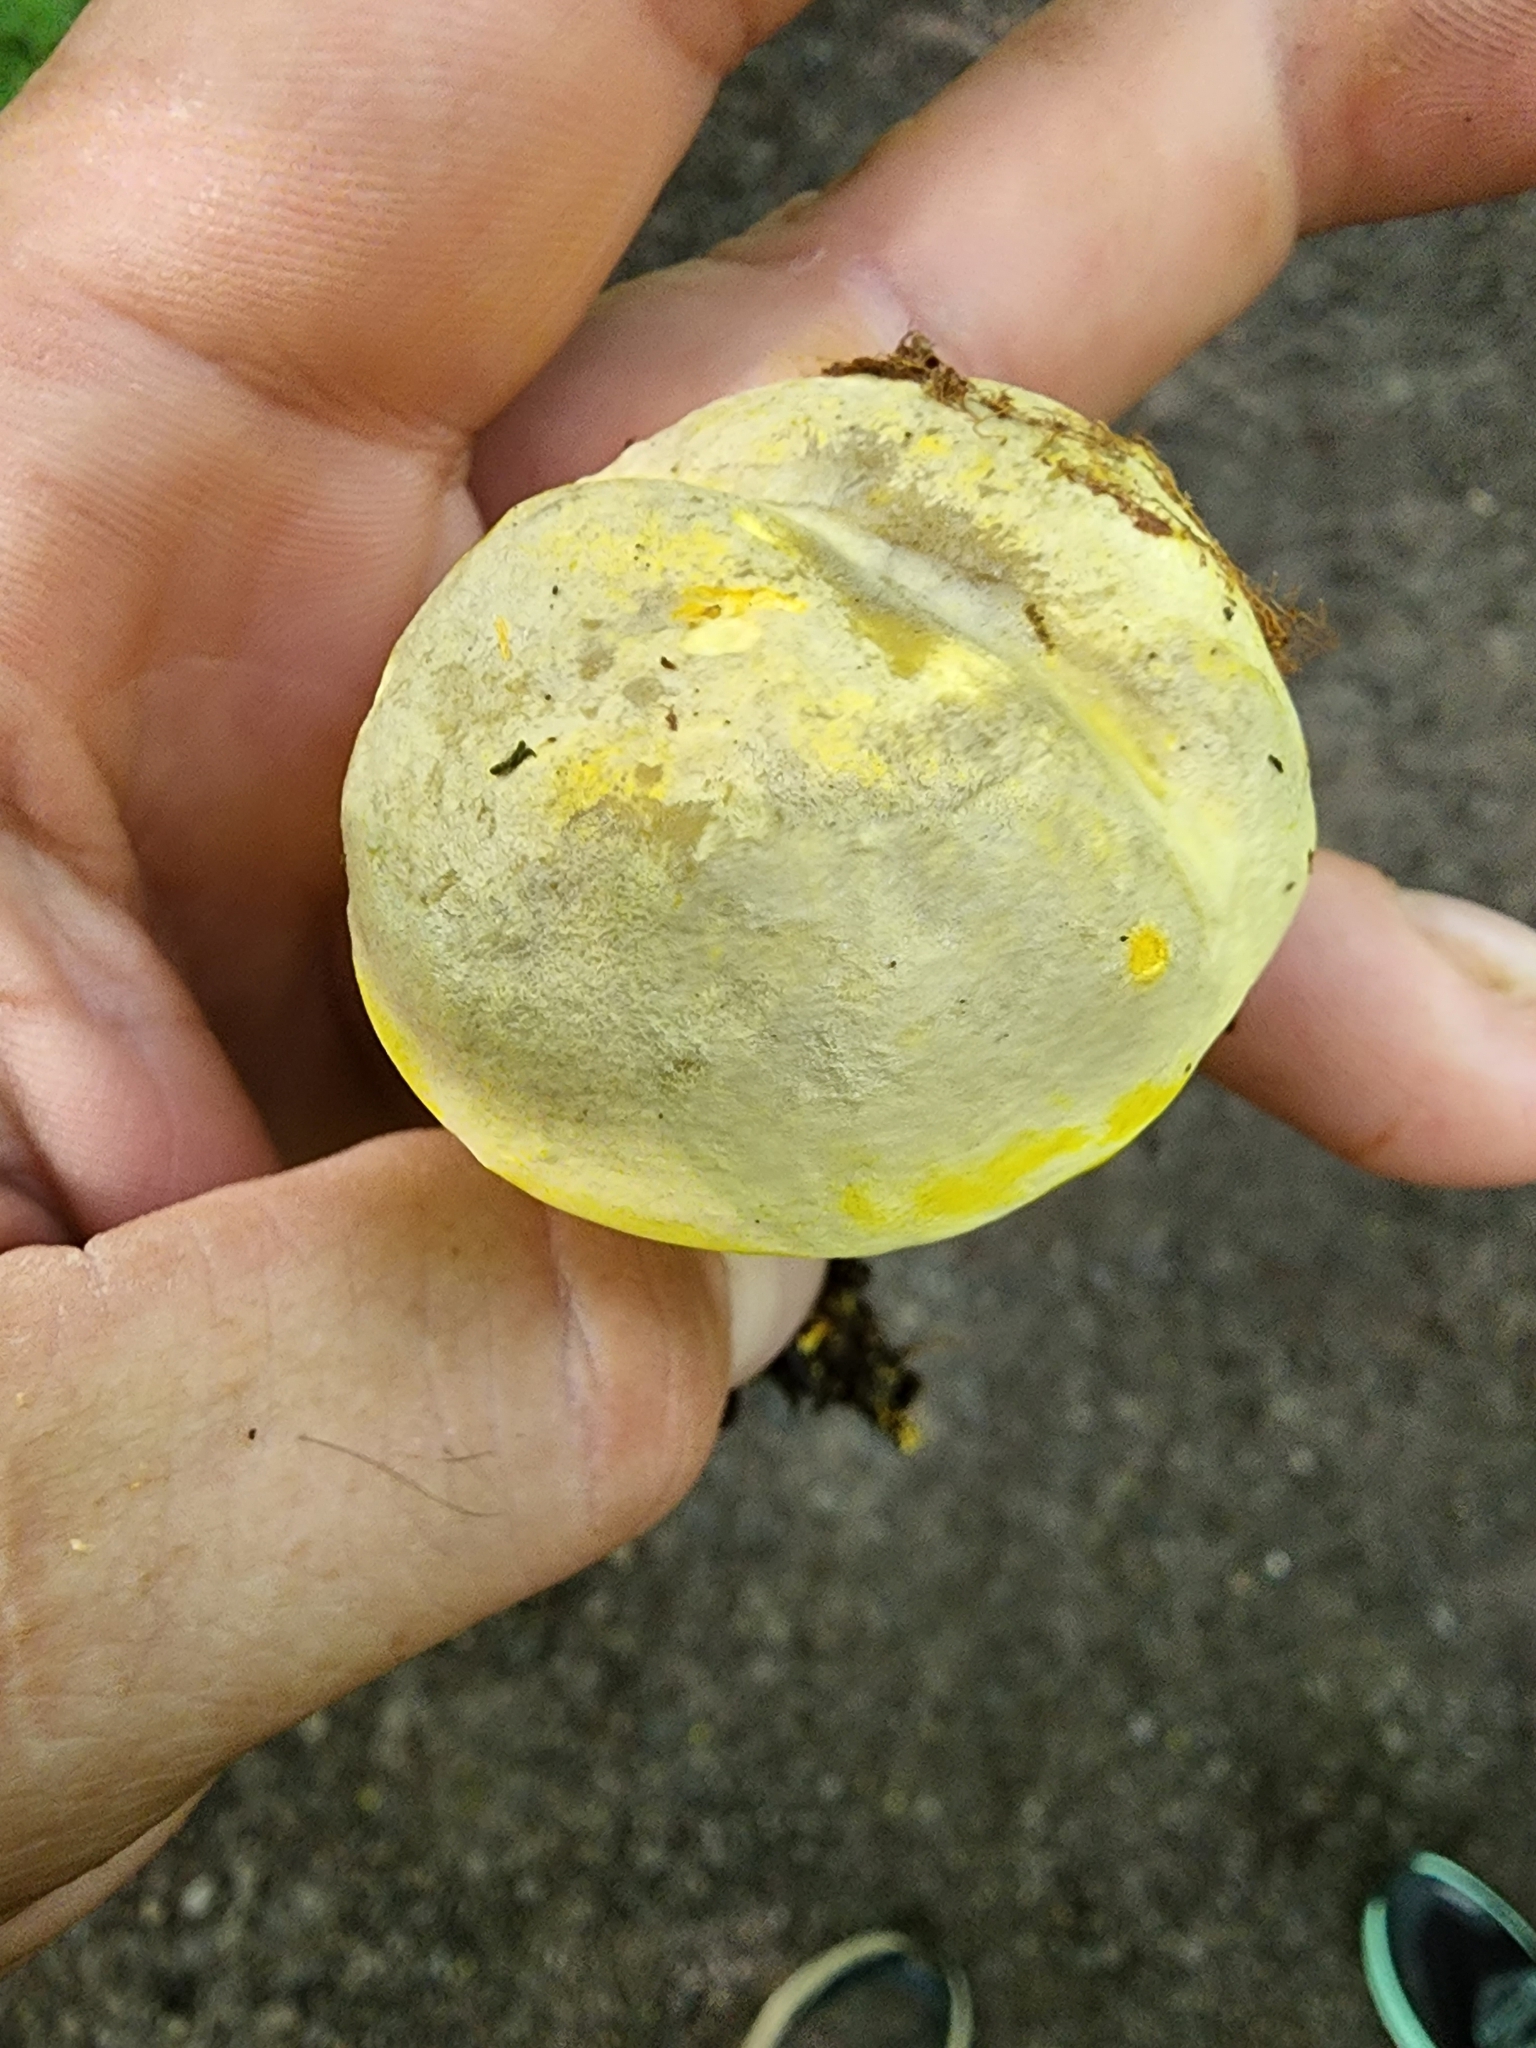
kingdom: Fungi
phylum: Basidiomycota
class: Agaricomycetes
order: Boletales
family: Boletaceae
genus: Retiboletus
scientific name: Retiboletus ornatipes
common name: Ornate-stalked bolete
